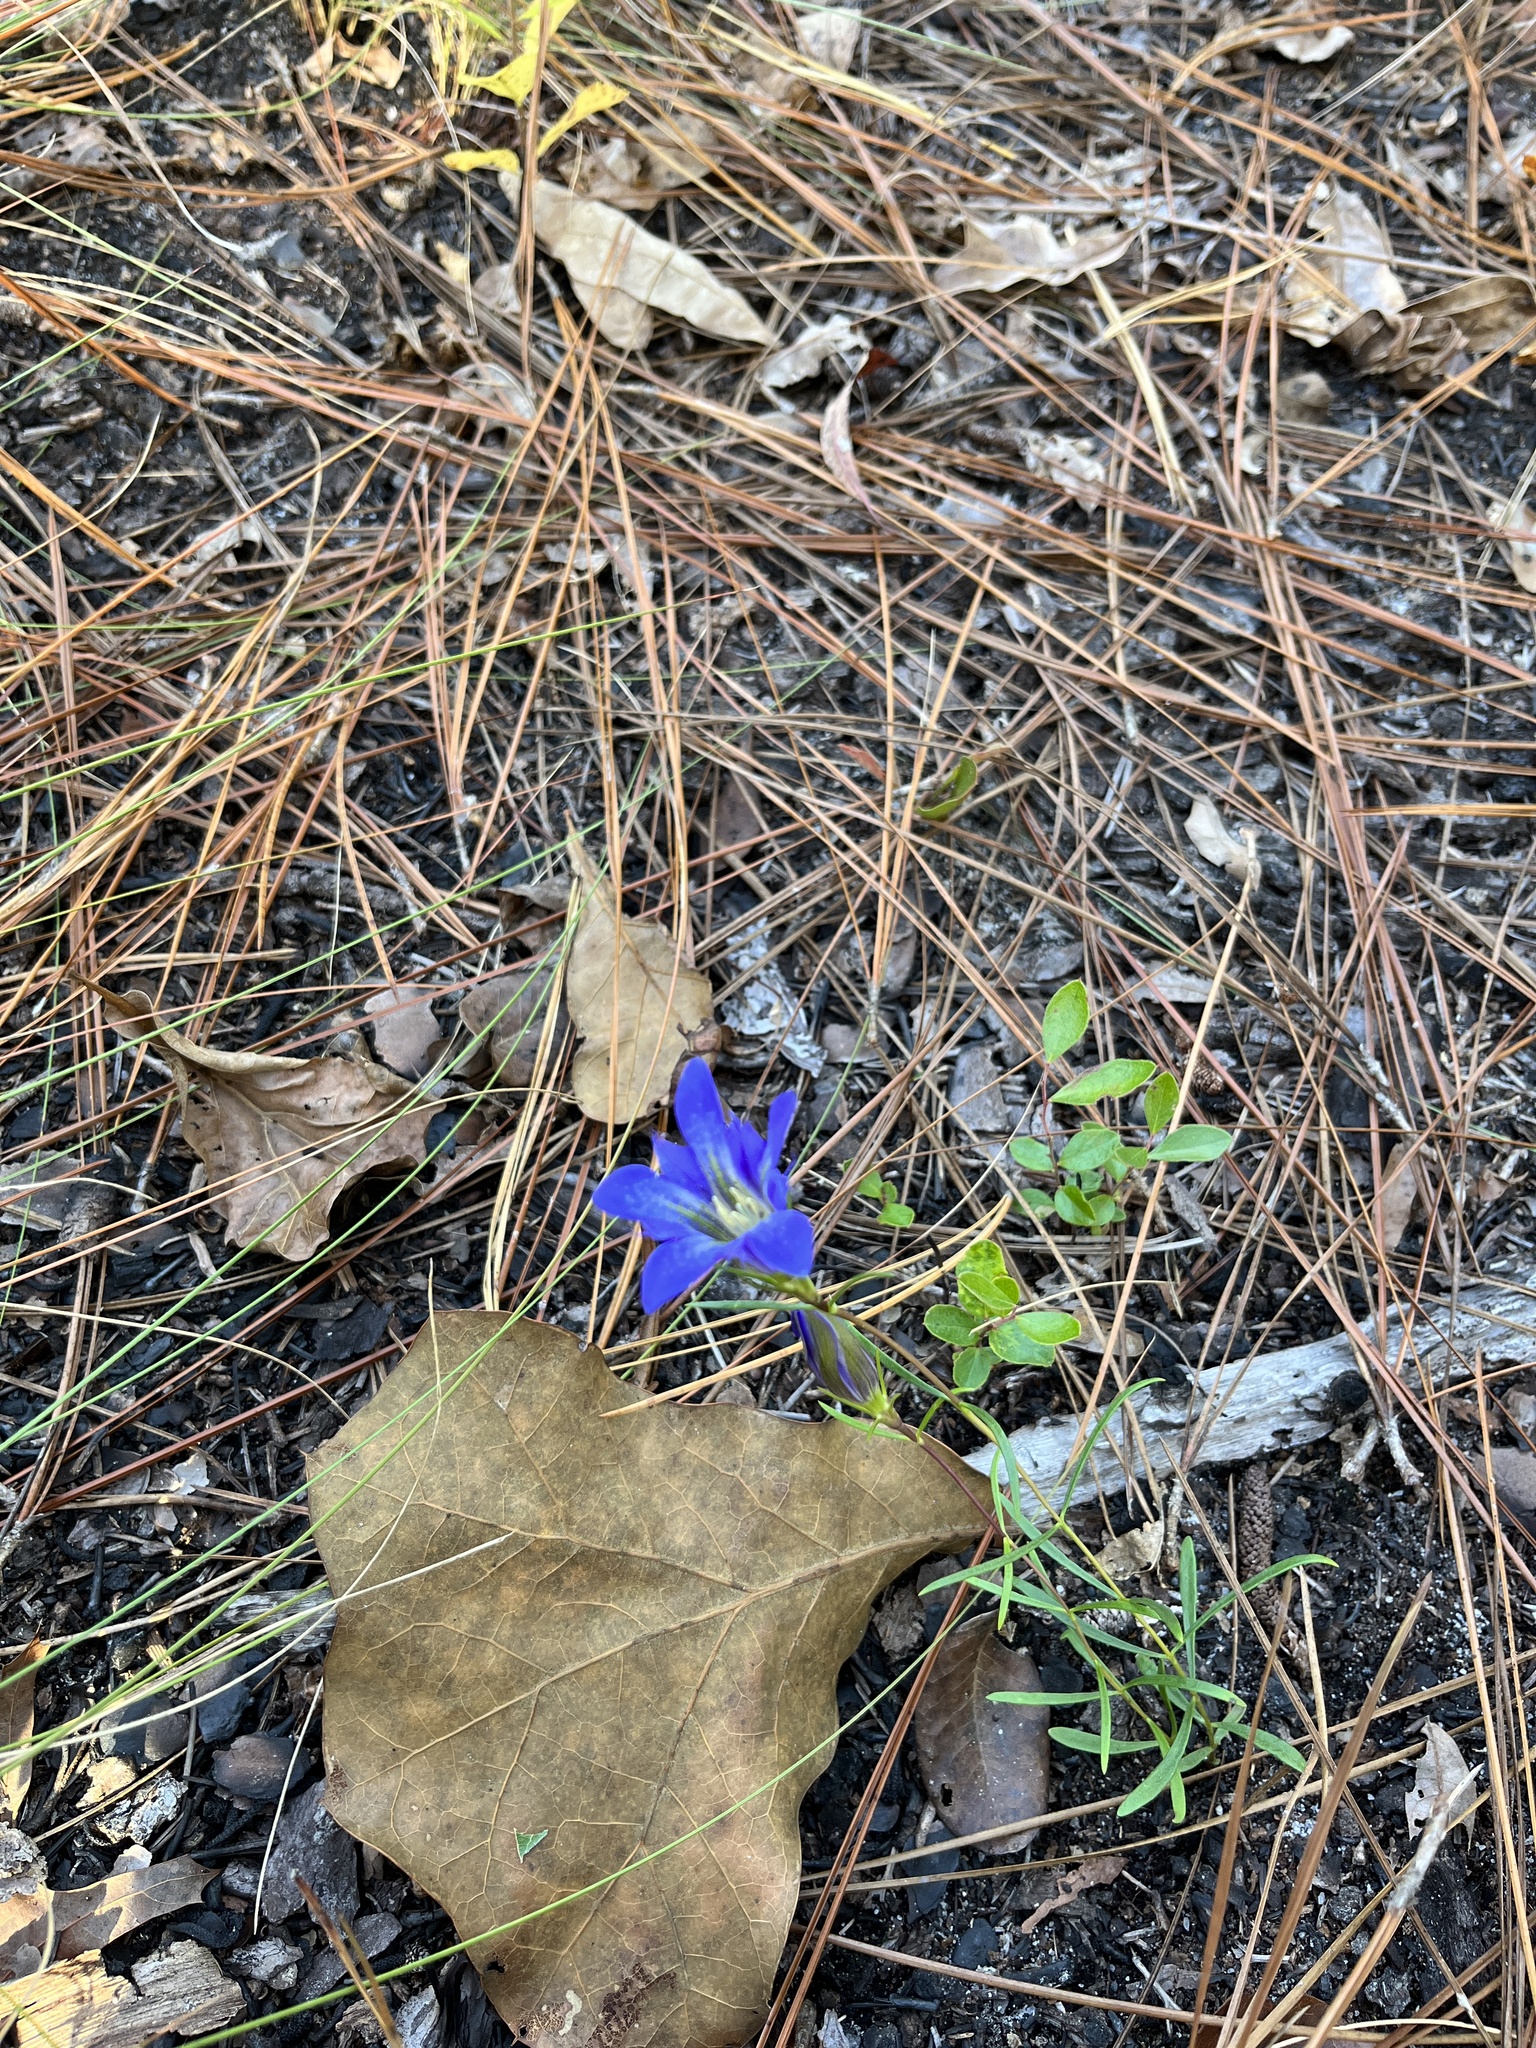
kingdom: Plantae
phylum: Tracheophyta
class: Magnoliopsida
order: Gentianales
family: Gentianaceae
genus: Gentiana
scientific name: Gentiana autumnalis
